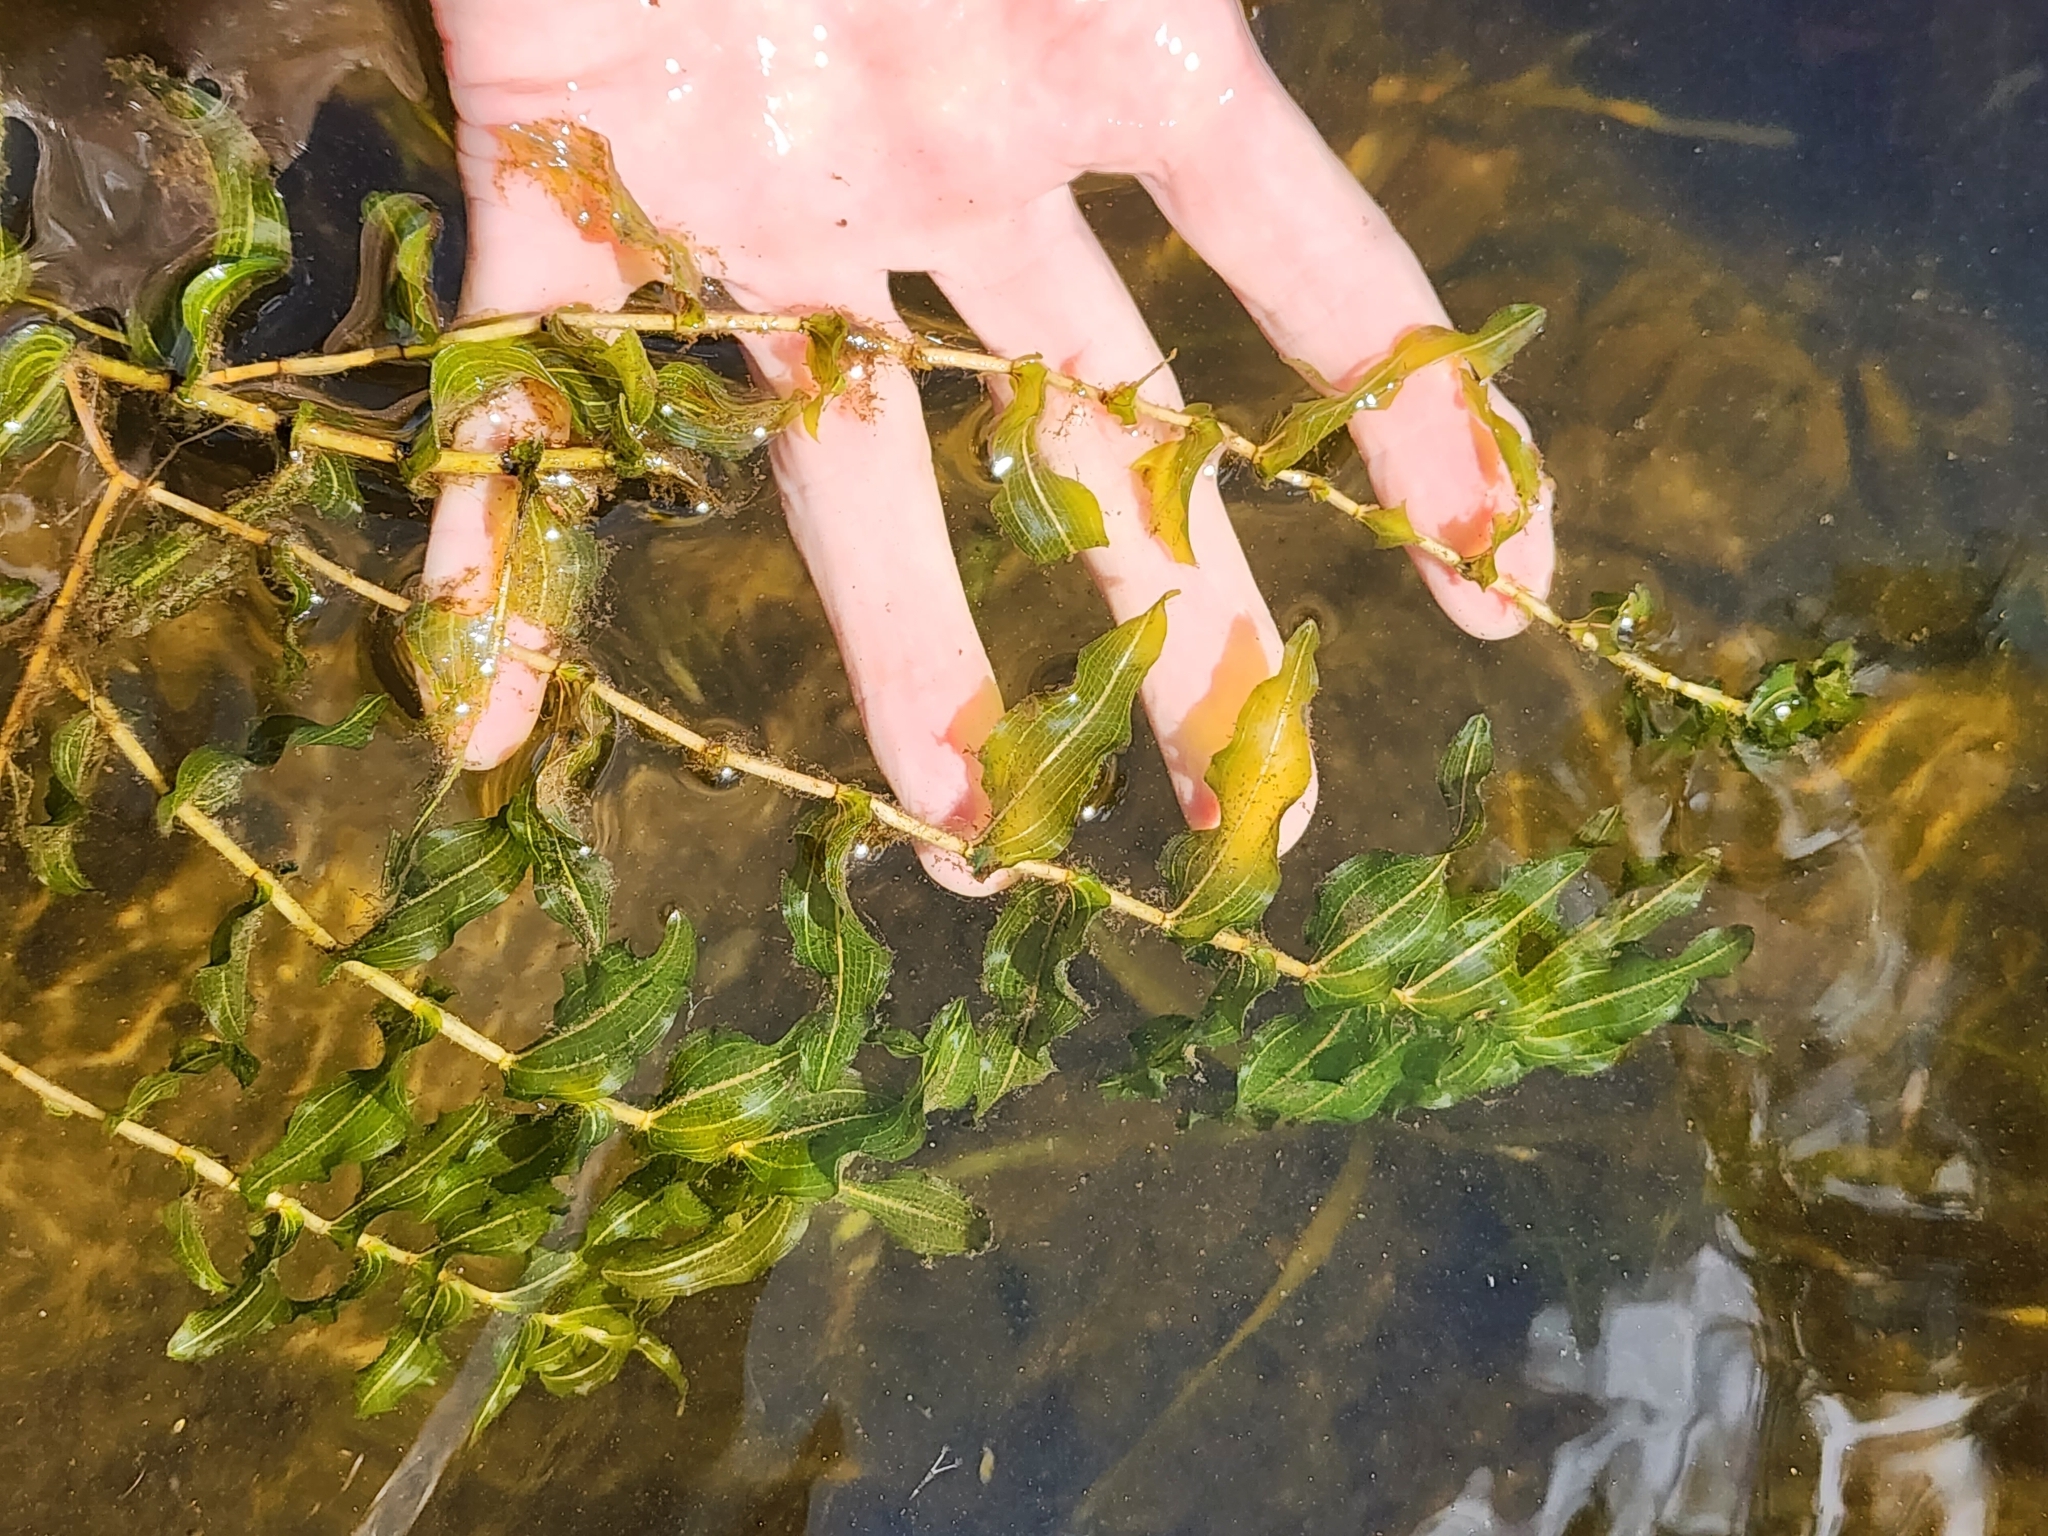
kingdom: Plantae
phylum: Tracheophyta
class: Liliopsida
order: Alismatales
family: Potamogetonaceae
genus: Potamogeton
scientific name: Potamogeton richardsonii
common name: Richardson's pondweed
